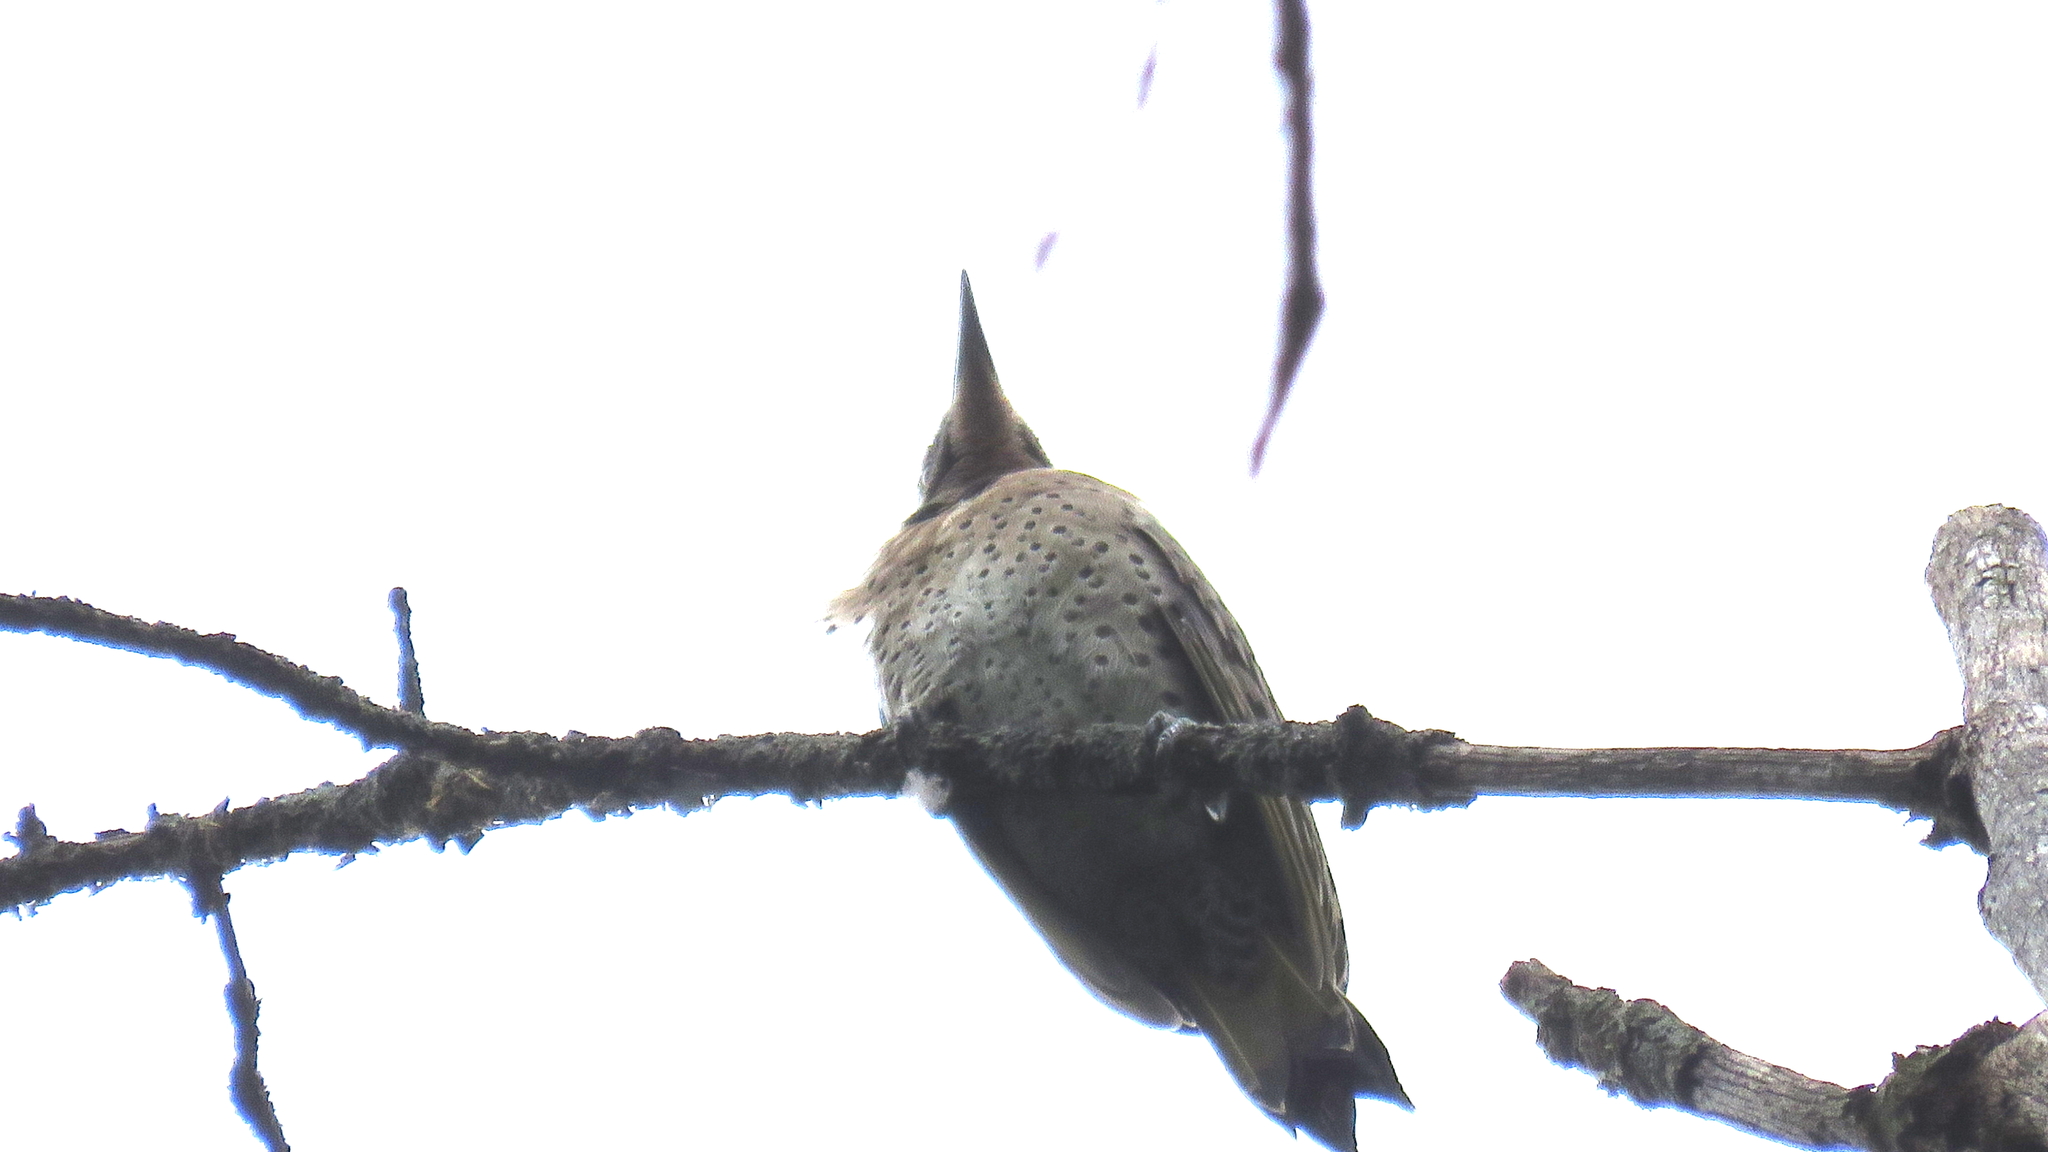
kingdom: Animalia
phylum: Chordata
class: Aves
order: Piciformes
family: Picidae
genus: Colaptes
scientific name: Colaptes auratus
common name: Northern flicker
